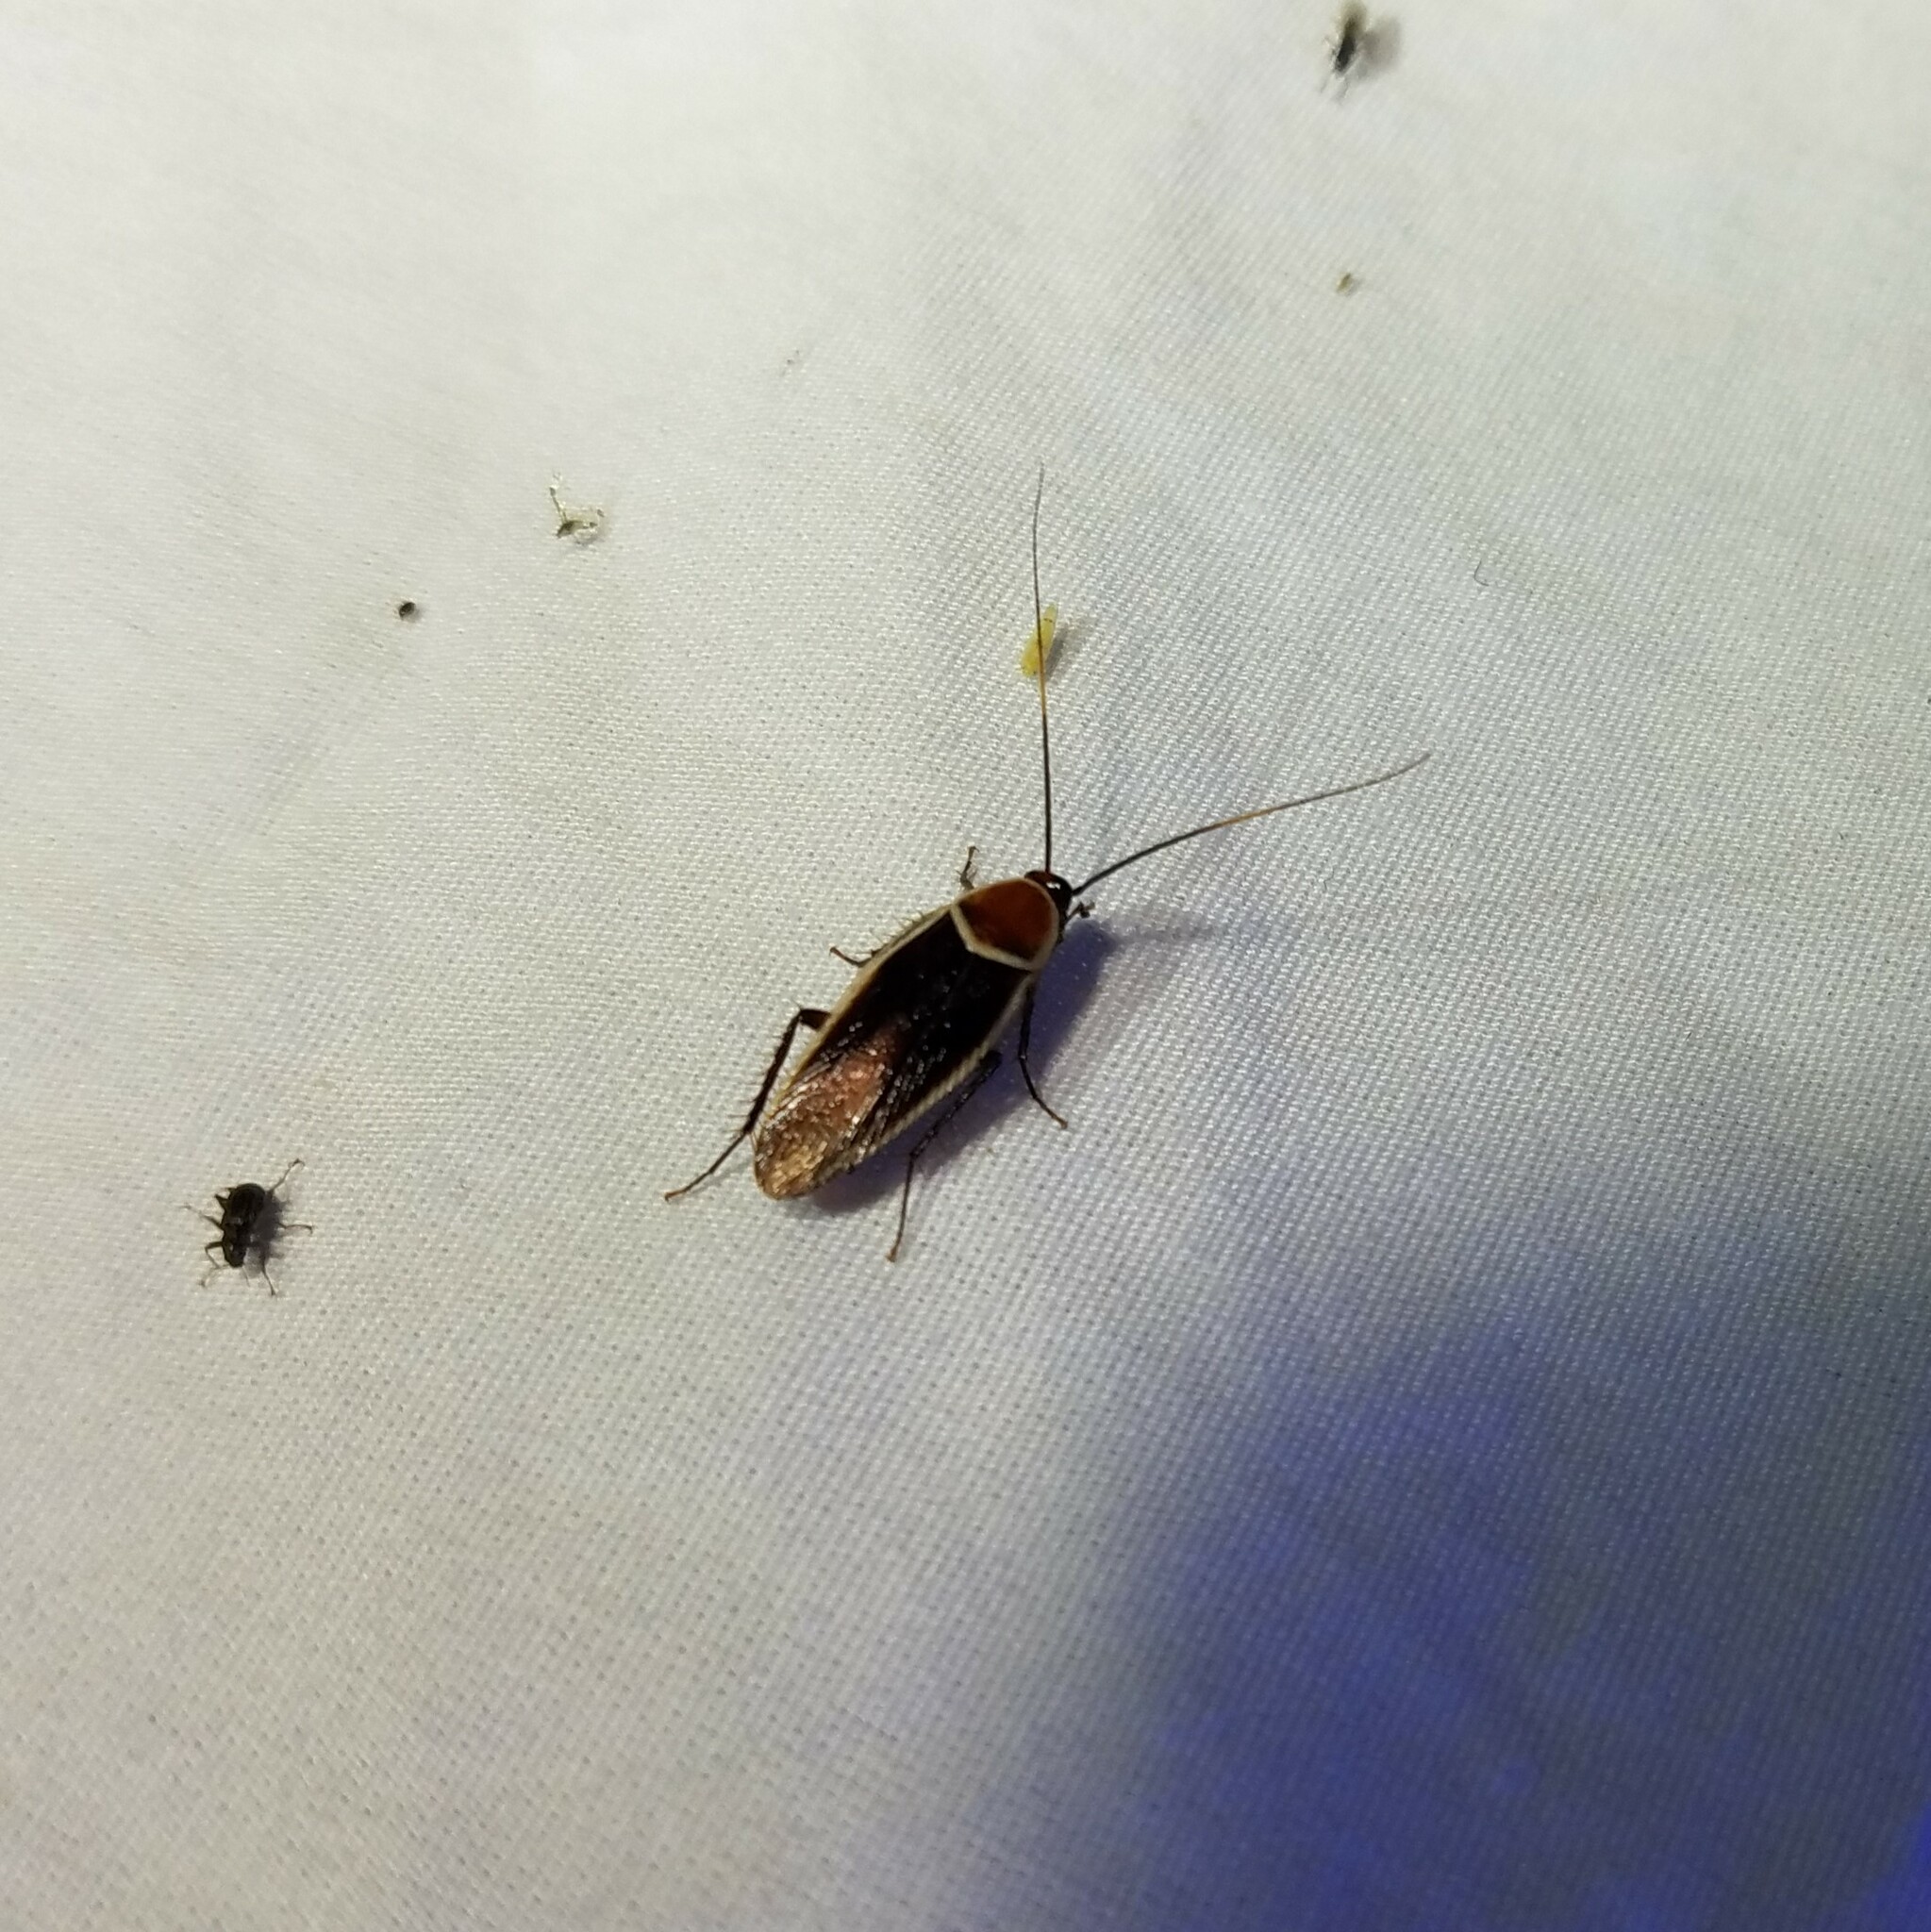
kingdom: Animalia
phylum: Arthropoda
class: Insecta
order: Blattodea
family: Ectobiidae
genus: Pseudomops
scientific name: Pseudomops septentrionalis
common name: Pale-bordered field cockroach
